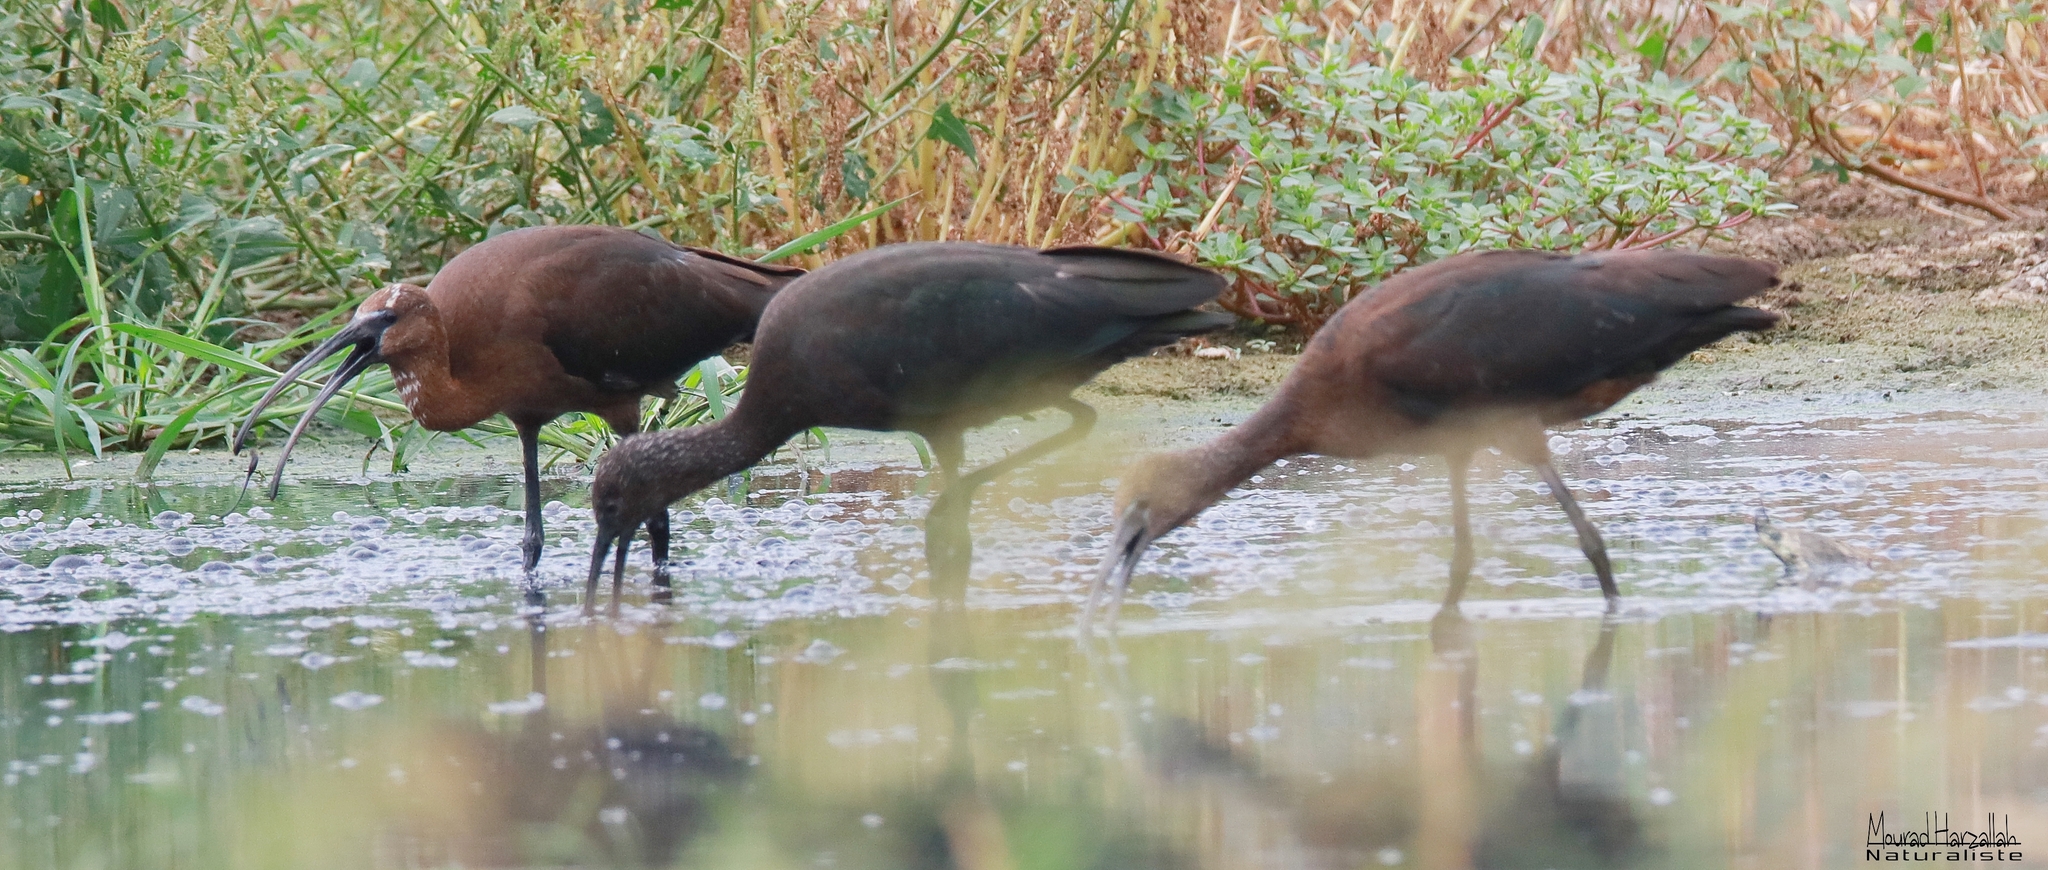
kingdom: Animalia
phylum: Chordata
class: Aves
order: Pelecaniformes
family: Threskiornithidae
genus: Plegadis
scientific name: Plegadis falcinellus
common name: Glossy ibis
